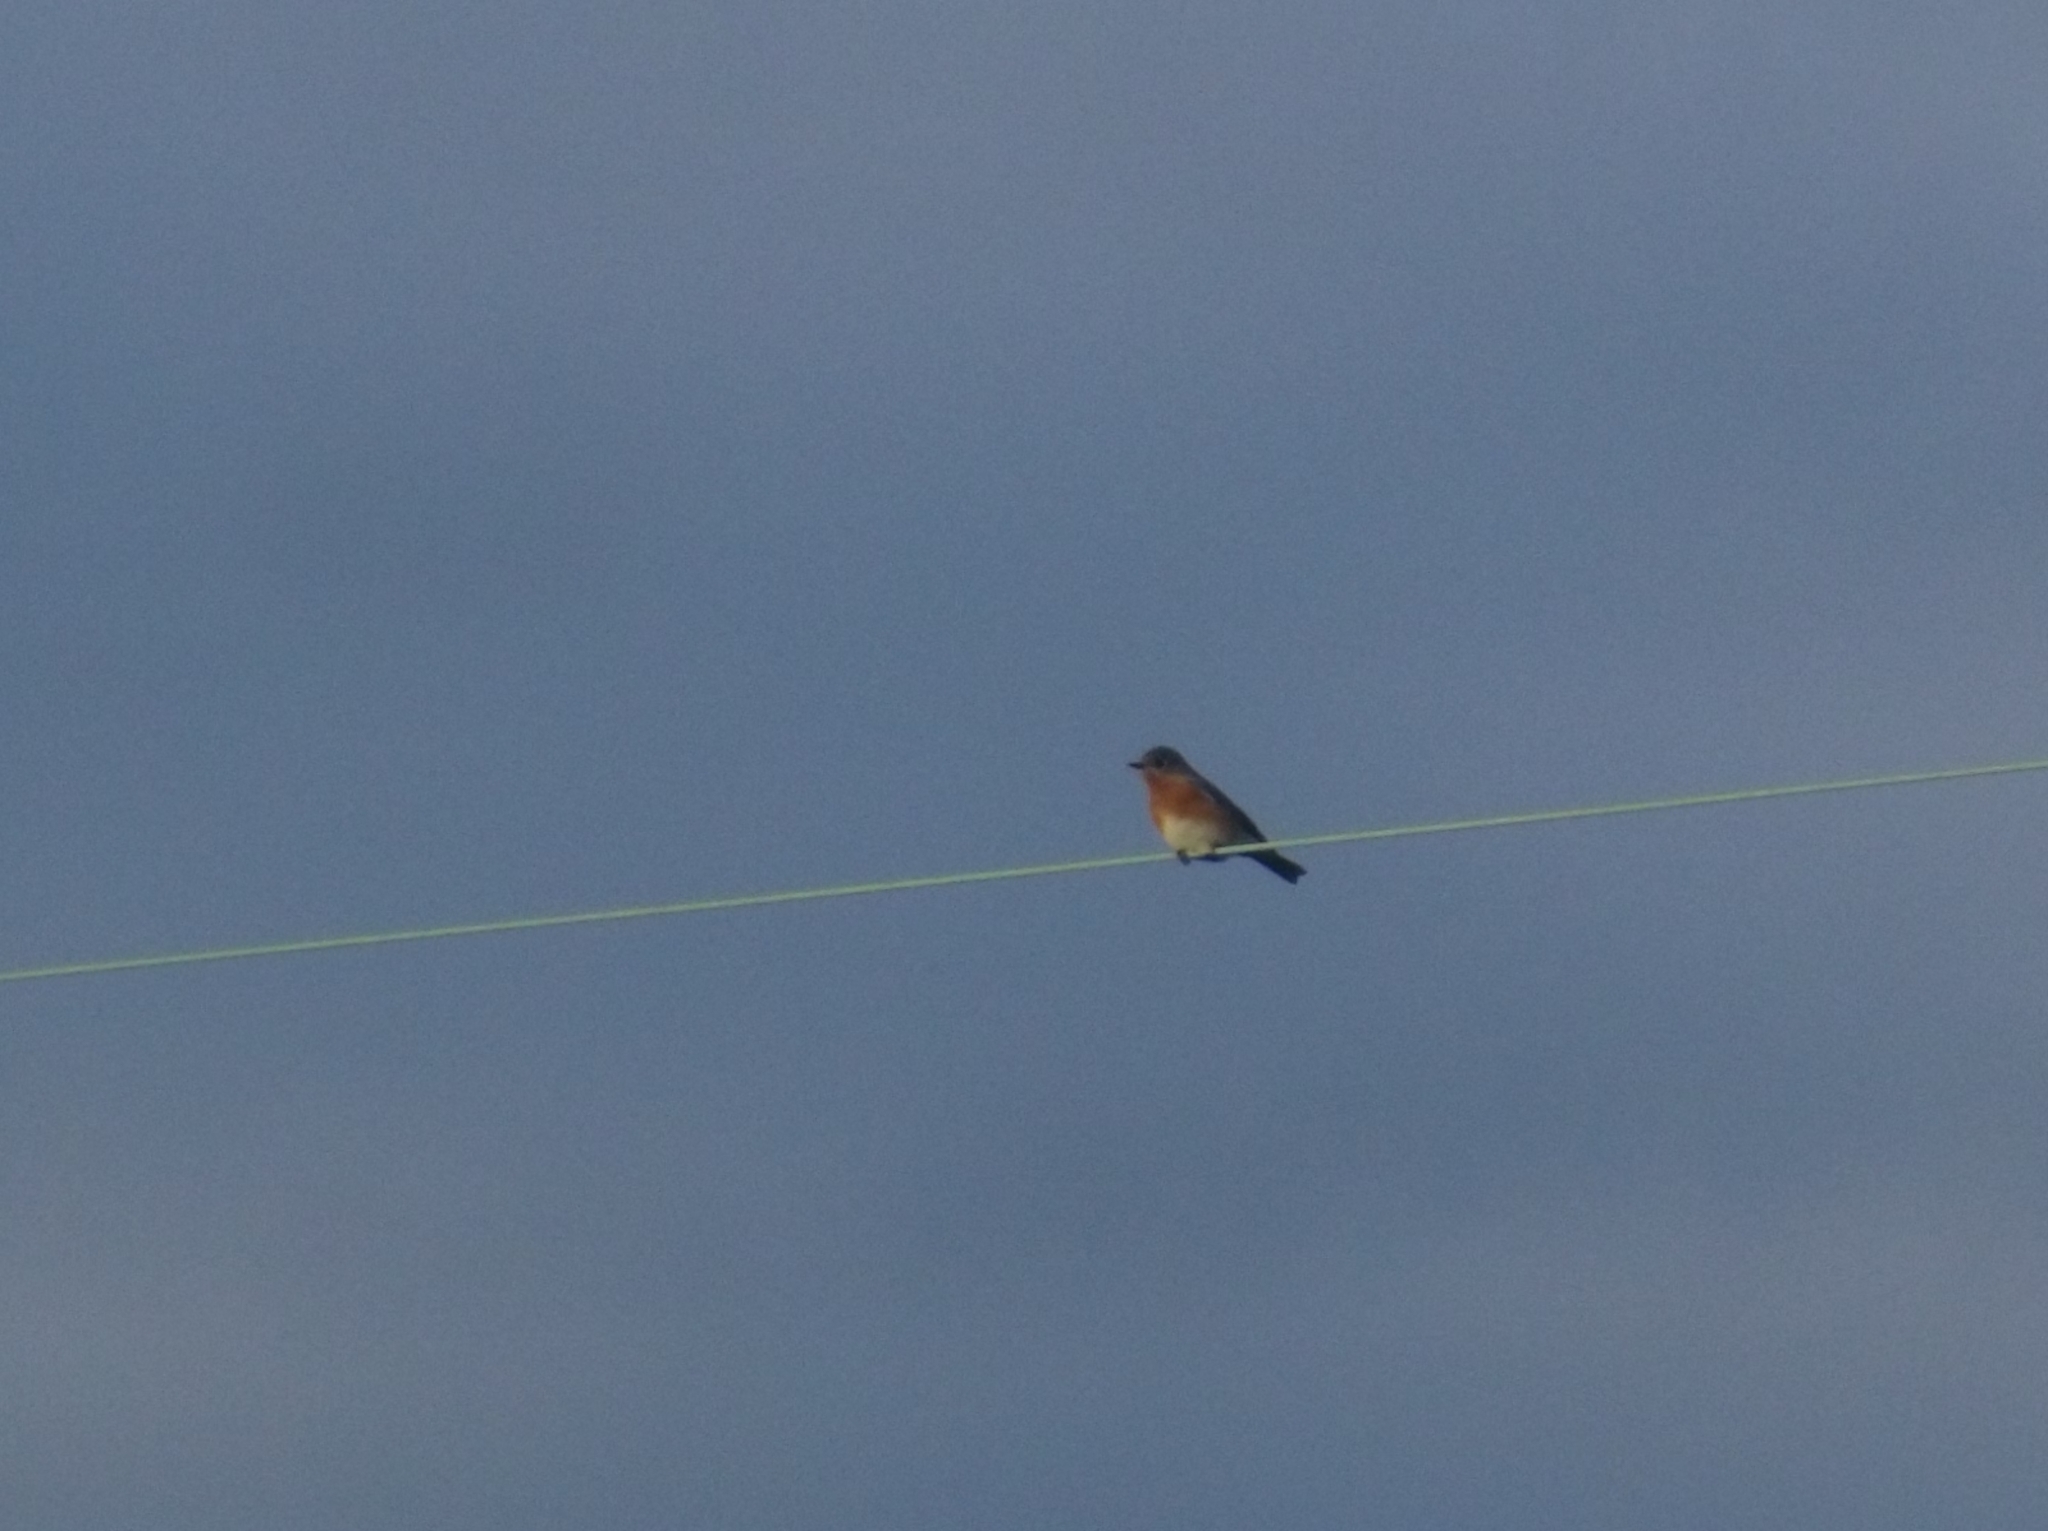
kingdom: Animalia
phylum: Chordata
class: Aves
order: Passeriformes
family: Turdidae
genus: Sialia
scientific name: Sialia sialis
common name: Eastern bluebird
